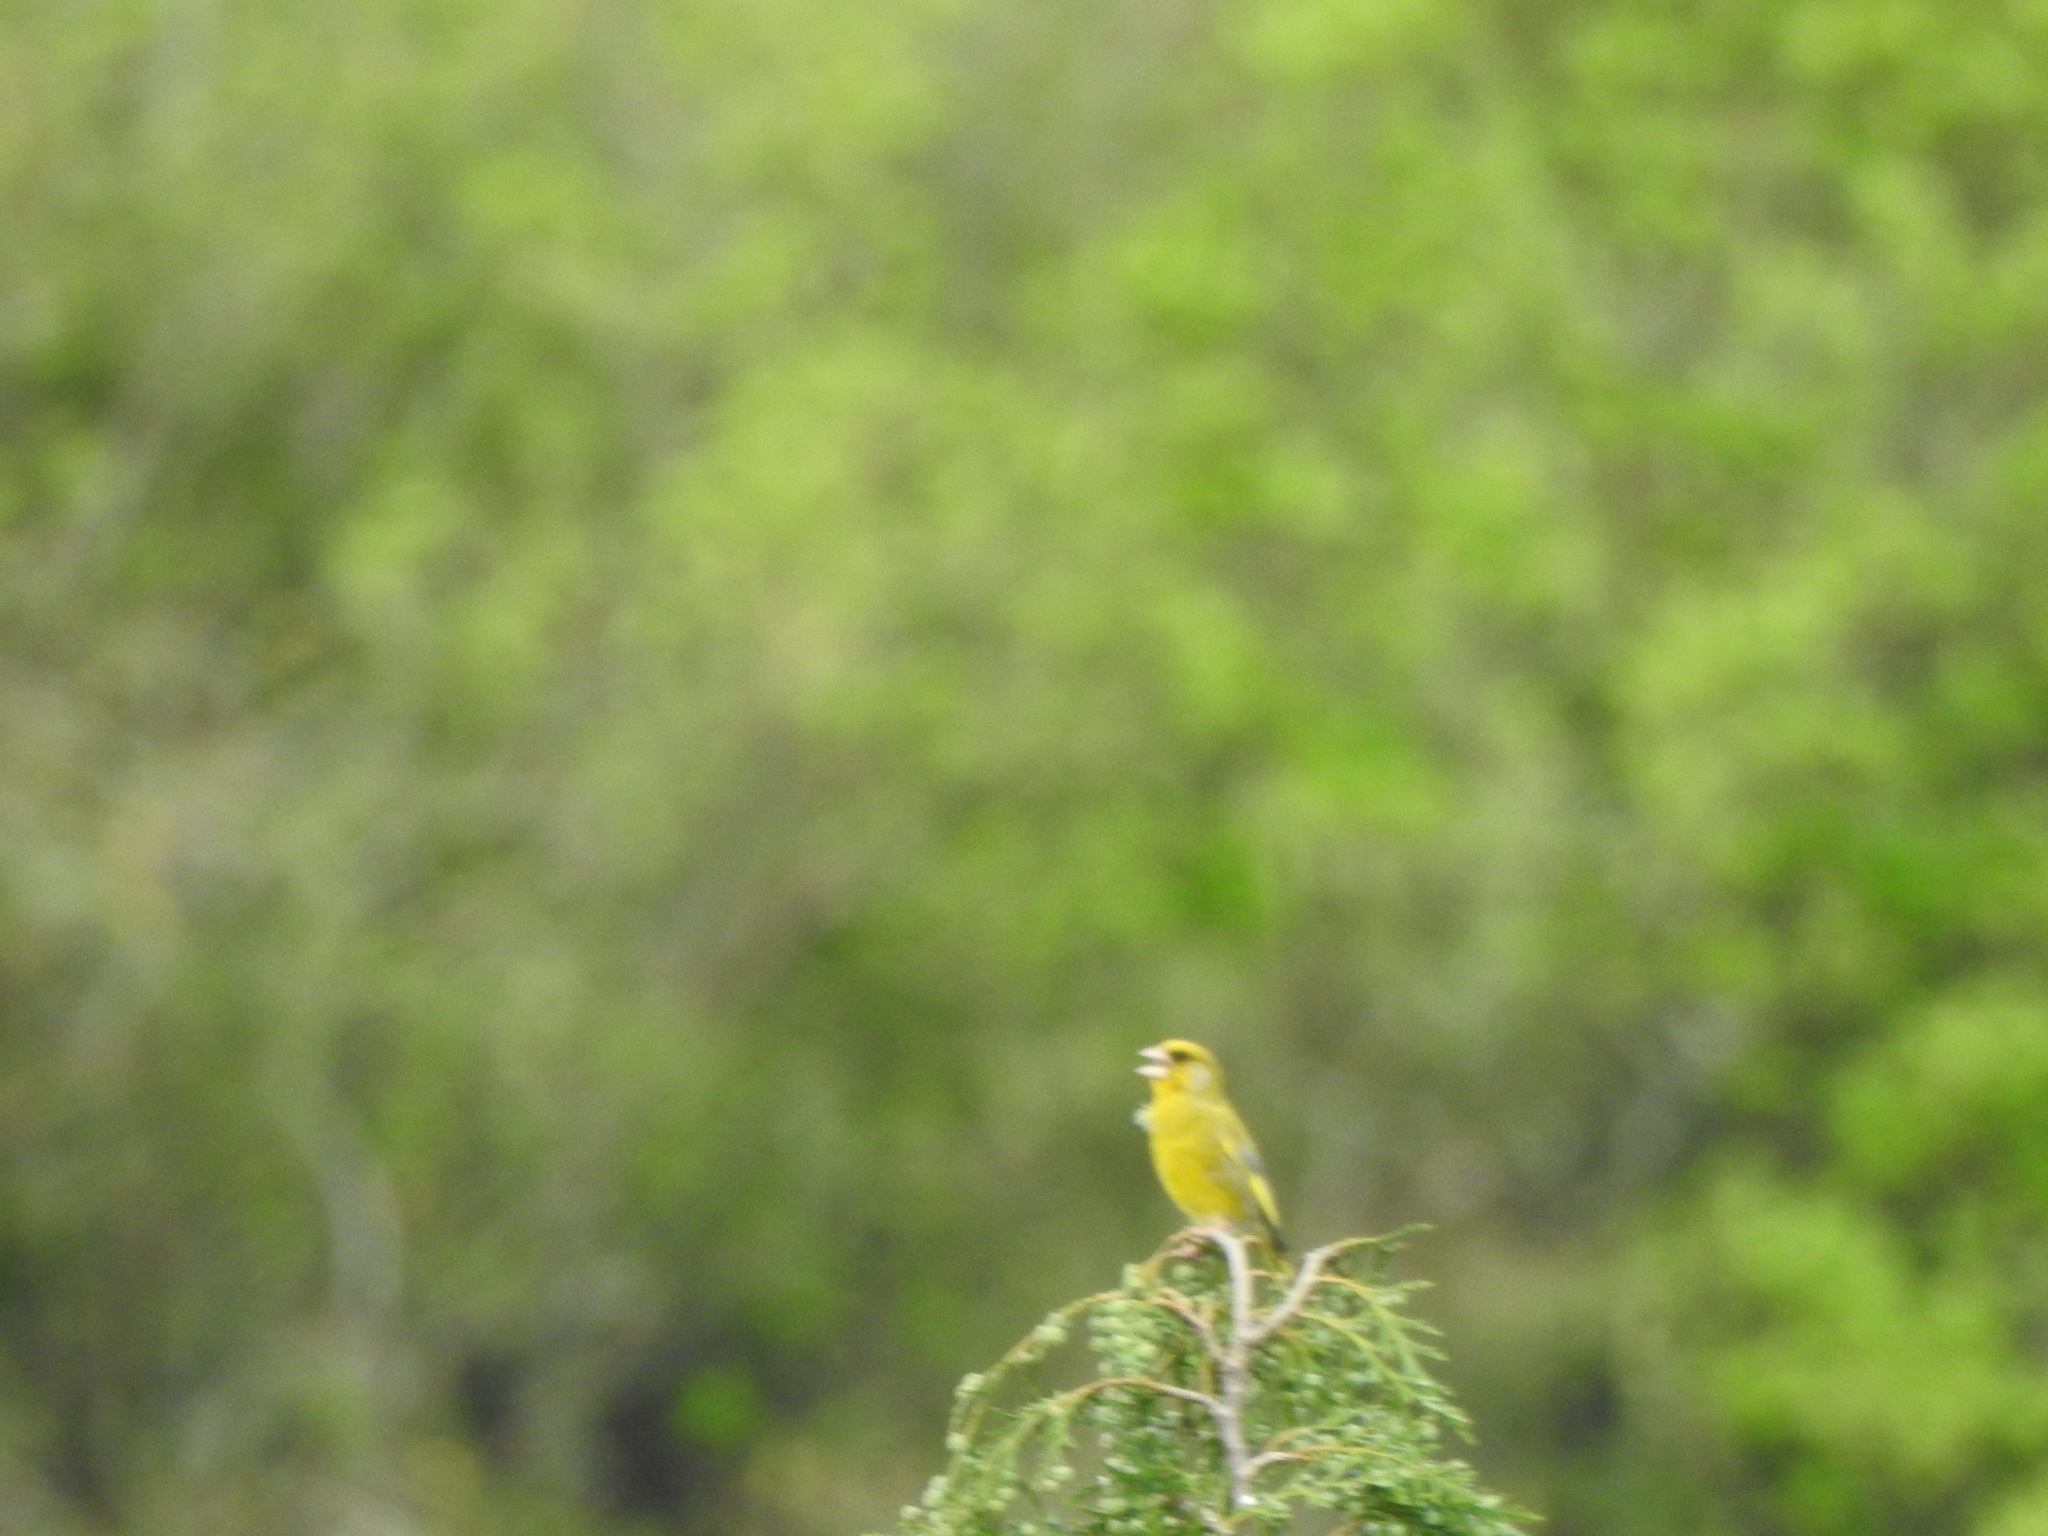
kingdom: Plantae
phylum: Tracheophyta
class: Liliopsida
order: Poales
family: Poaceae
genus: Chloris
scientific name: Chloris chloris
